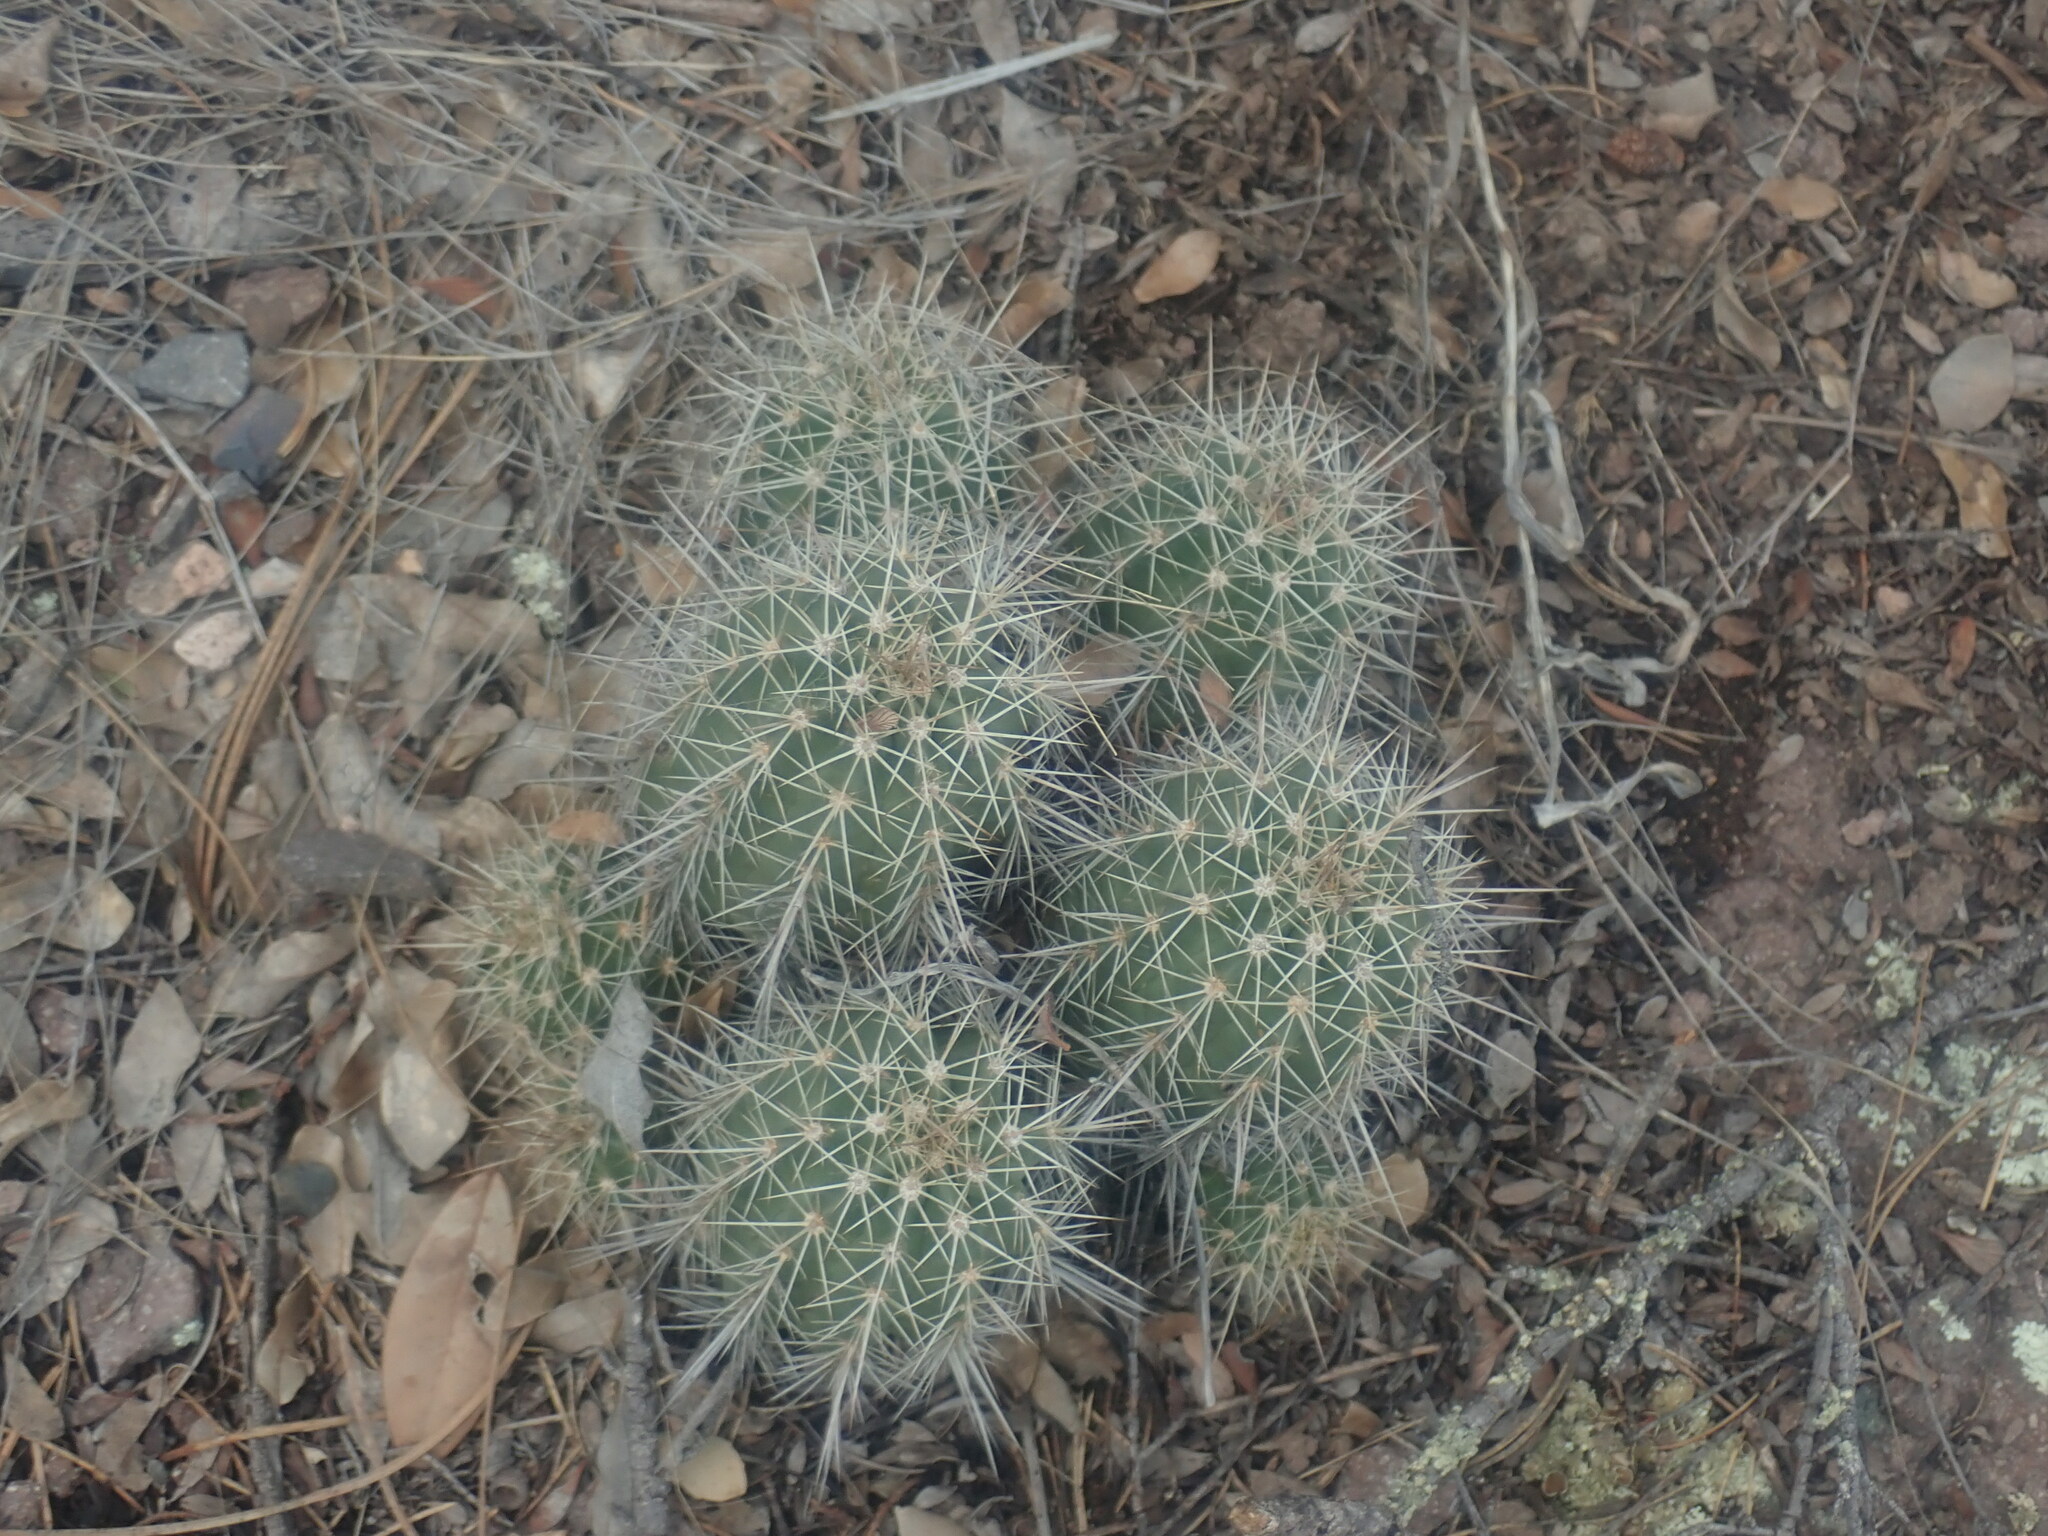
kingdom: Plantae
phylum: Tracheophyta
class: Magnoliopsida
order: Caryophyllales
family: Cactaceae
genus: Echinocereus
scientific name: Echinocereus coccineus
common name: Scarlet hedgehog cactus
